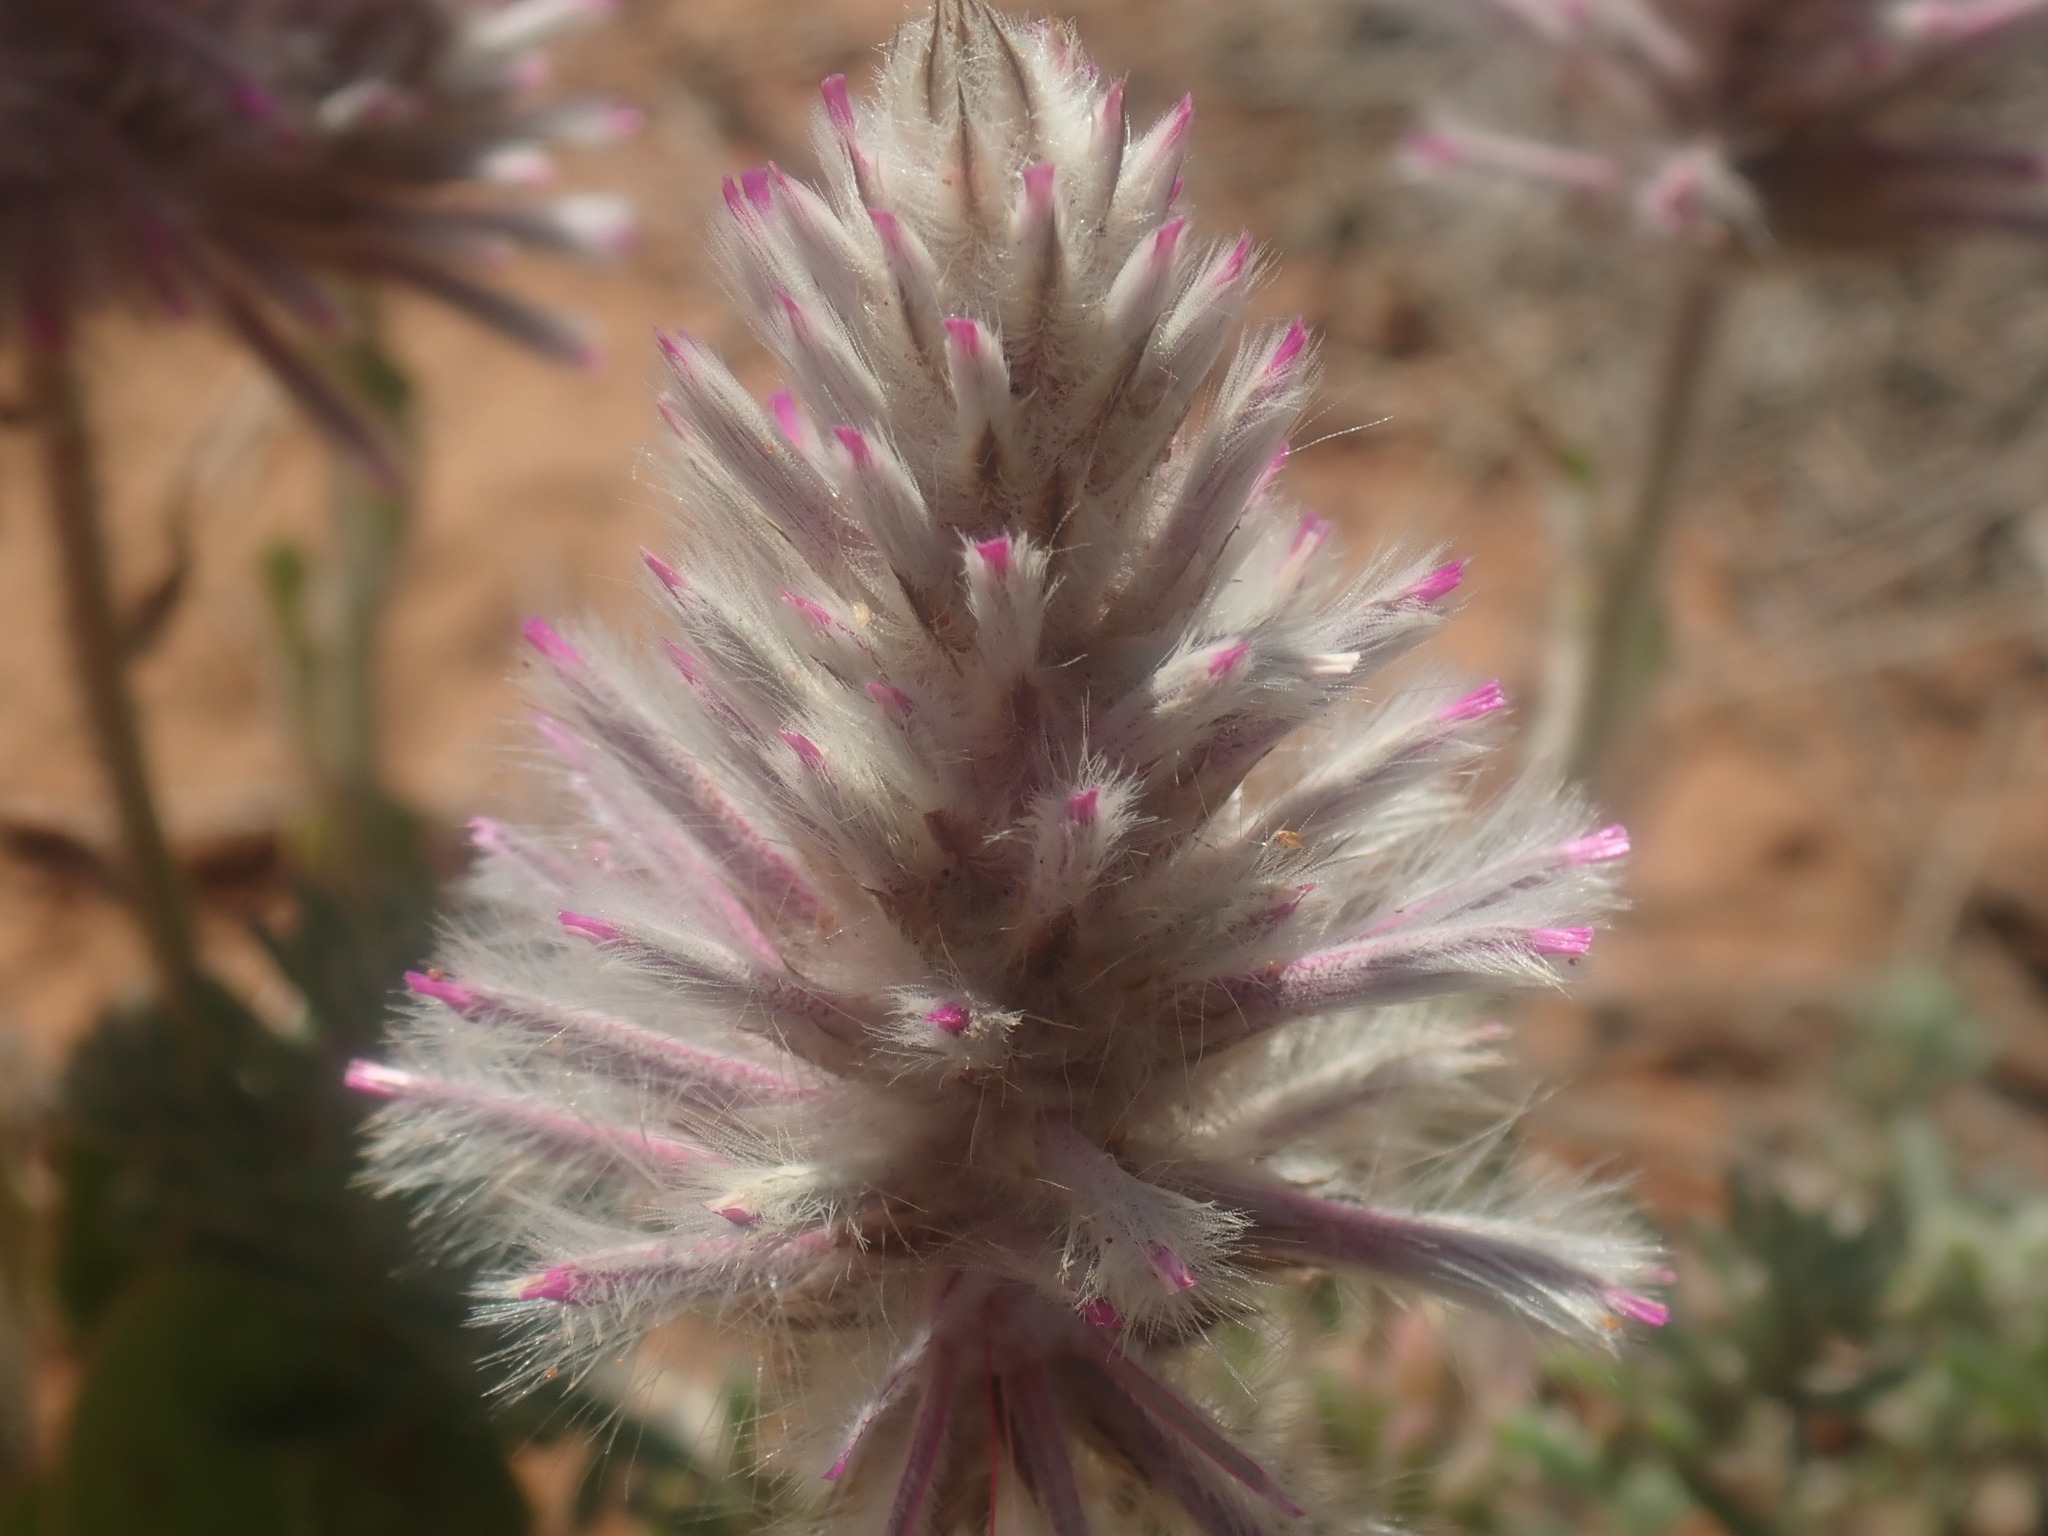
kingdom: Plantae
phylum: Tracheophyta
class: Magnoliopsida
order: Caryophyllales
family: Amaranthaceae
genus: Ptilotus
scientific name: Ptilotus exaltatus
